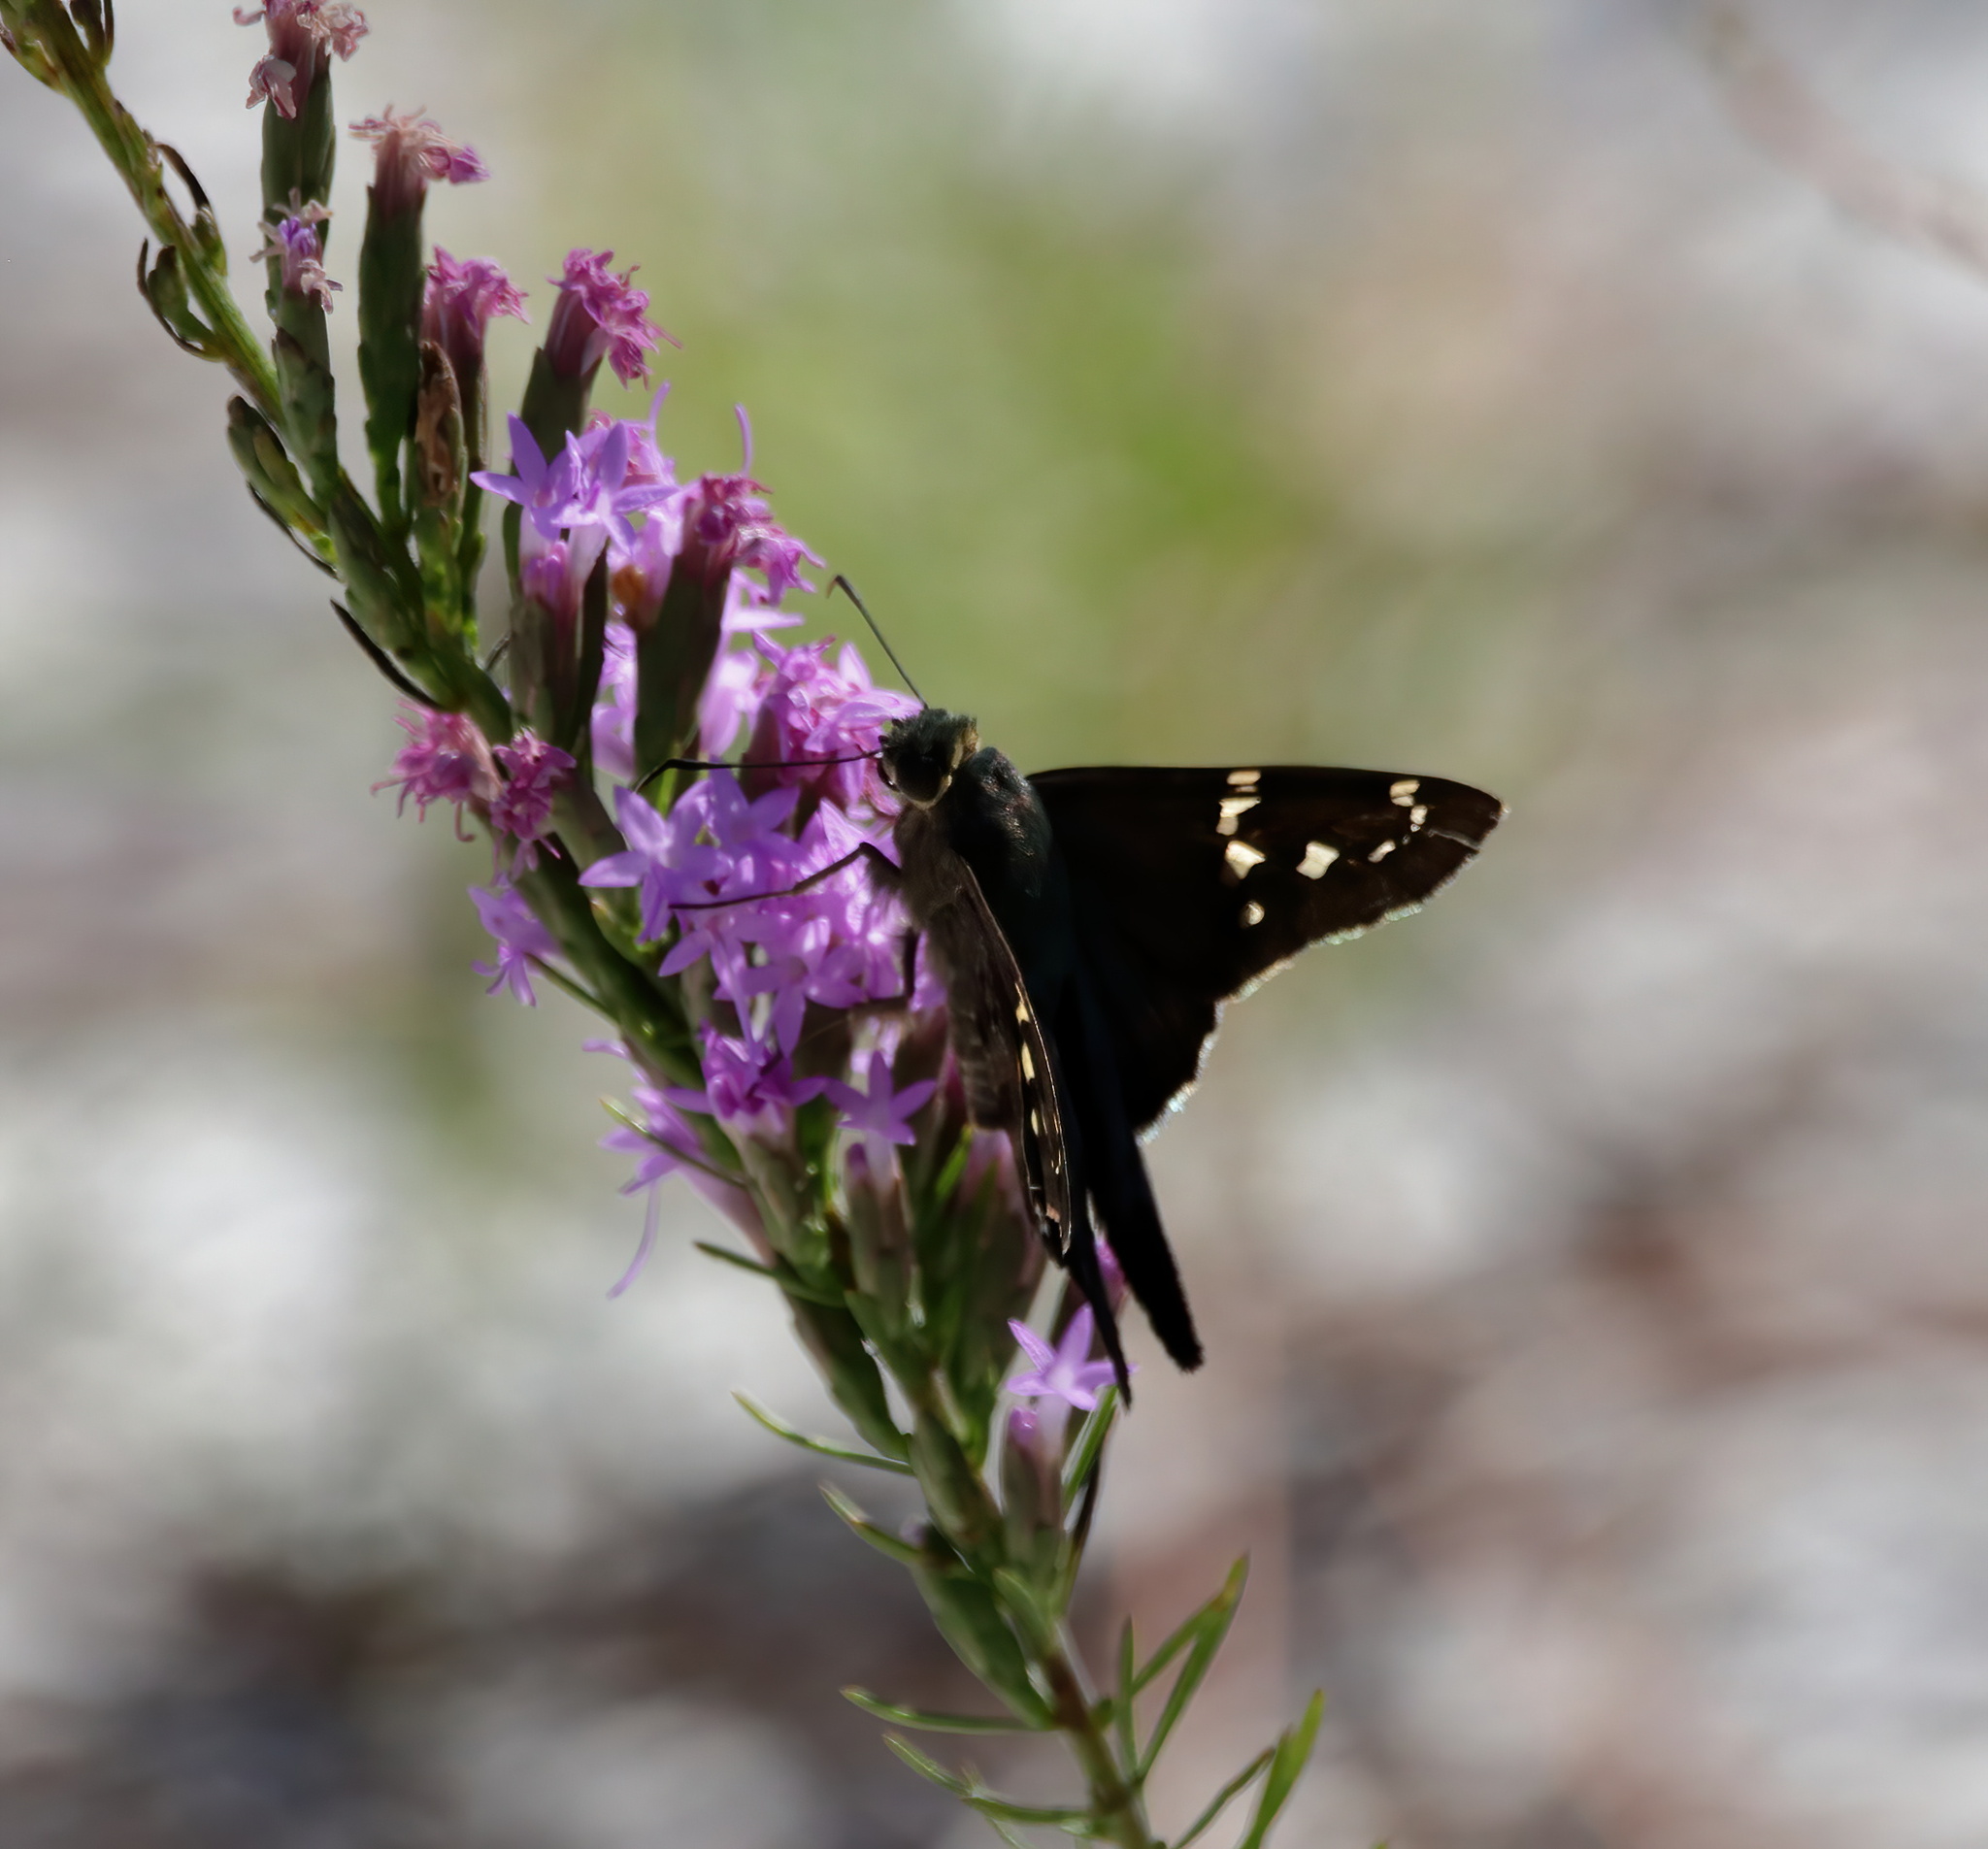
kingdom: Animalia
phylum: Arthropoda
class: Insecta
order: Lepidoptera
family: Hesperiidae
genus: Urbanus
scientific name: Urbanus proteus
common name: Long-tailed skipper
